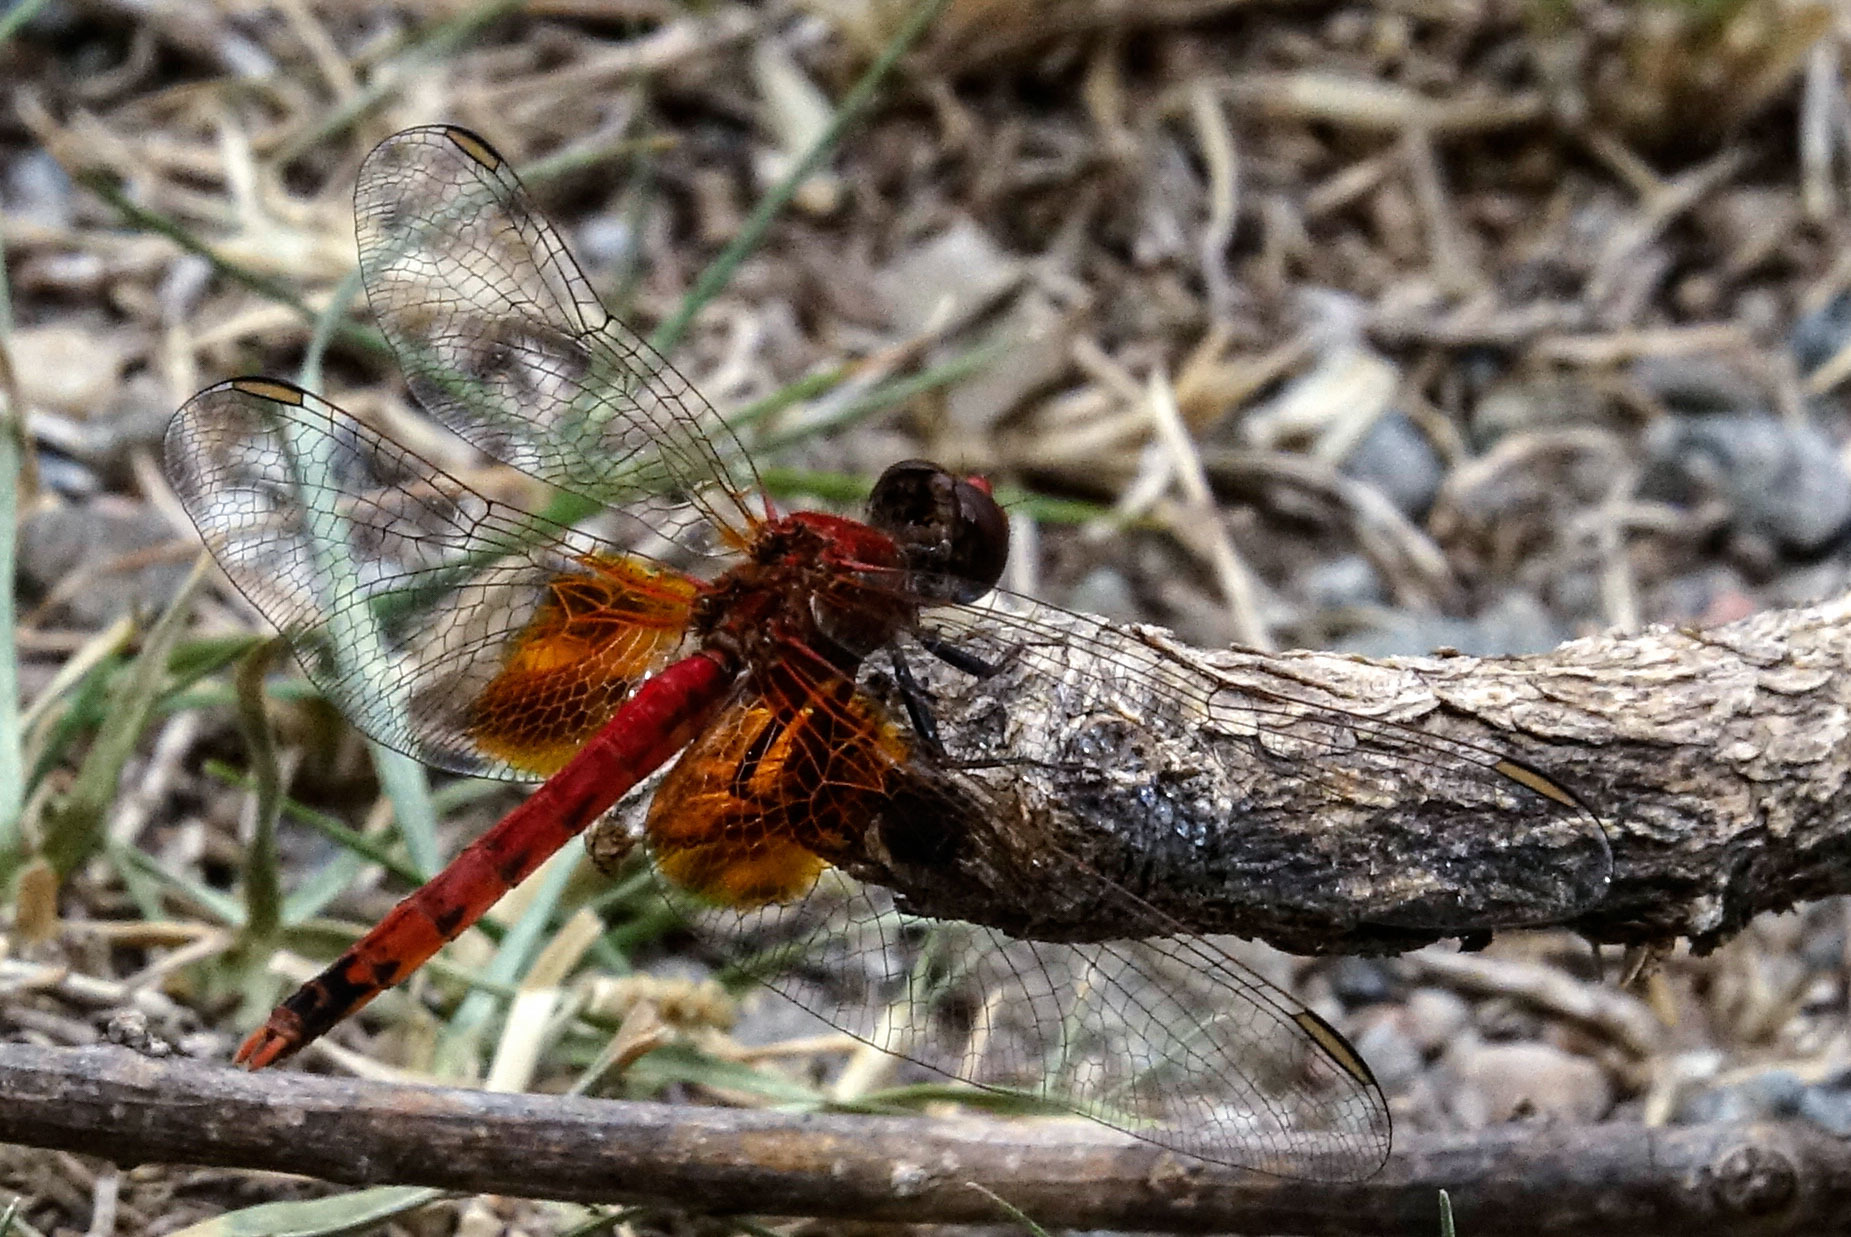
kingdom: Animalia
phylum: Arthropoda
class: Insecta
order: Odonata
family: Libellulidae
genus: Erythrodiplax
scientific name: Erythrodiplax corallina
